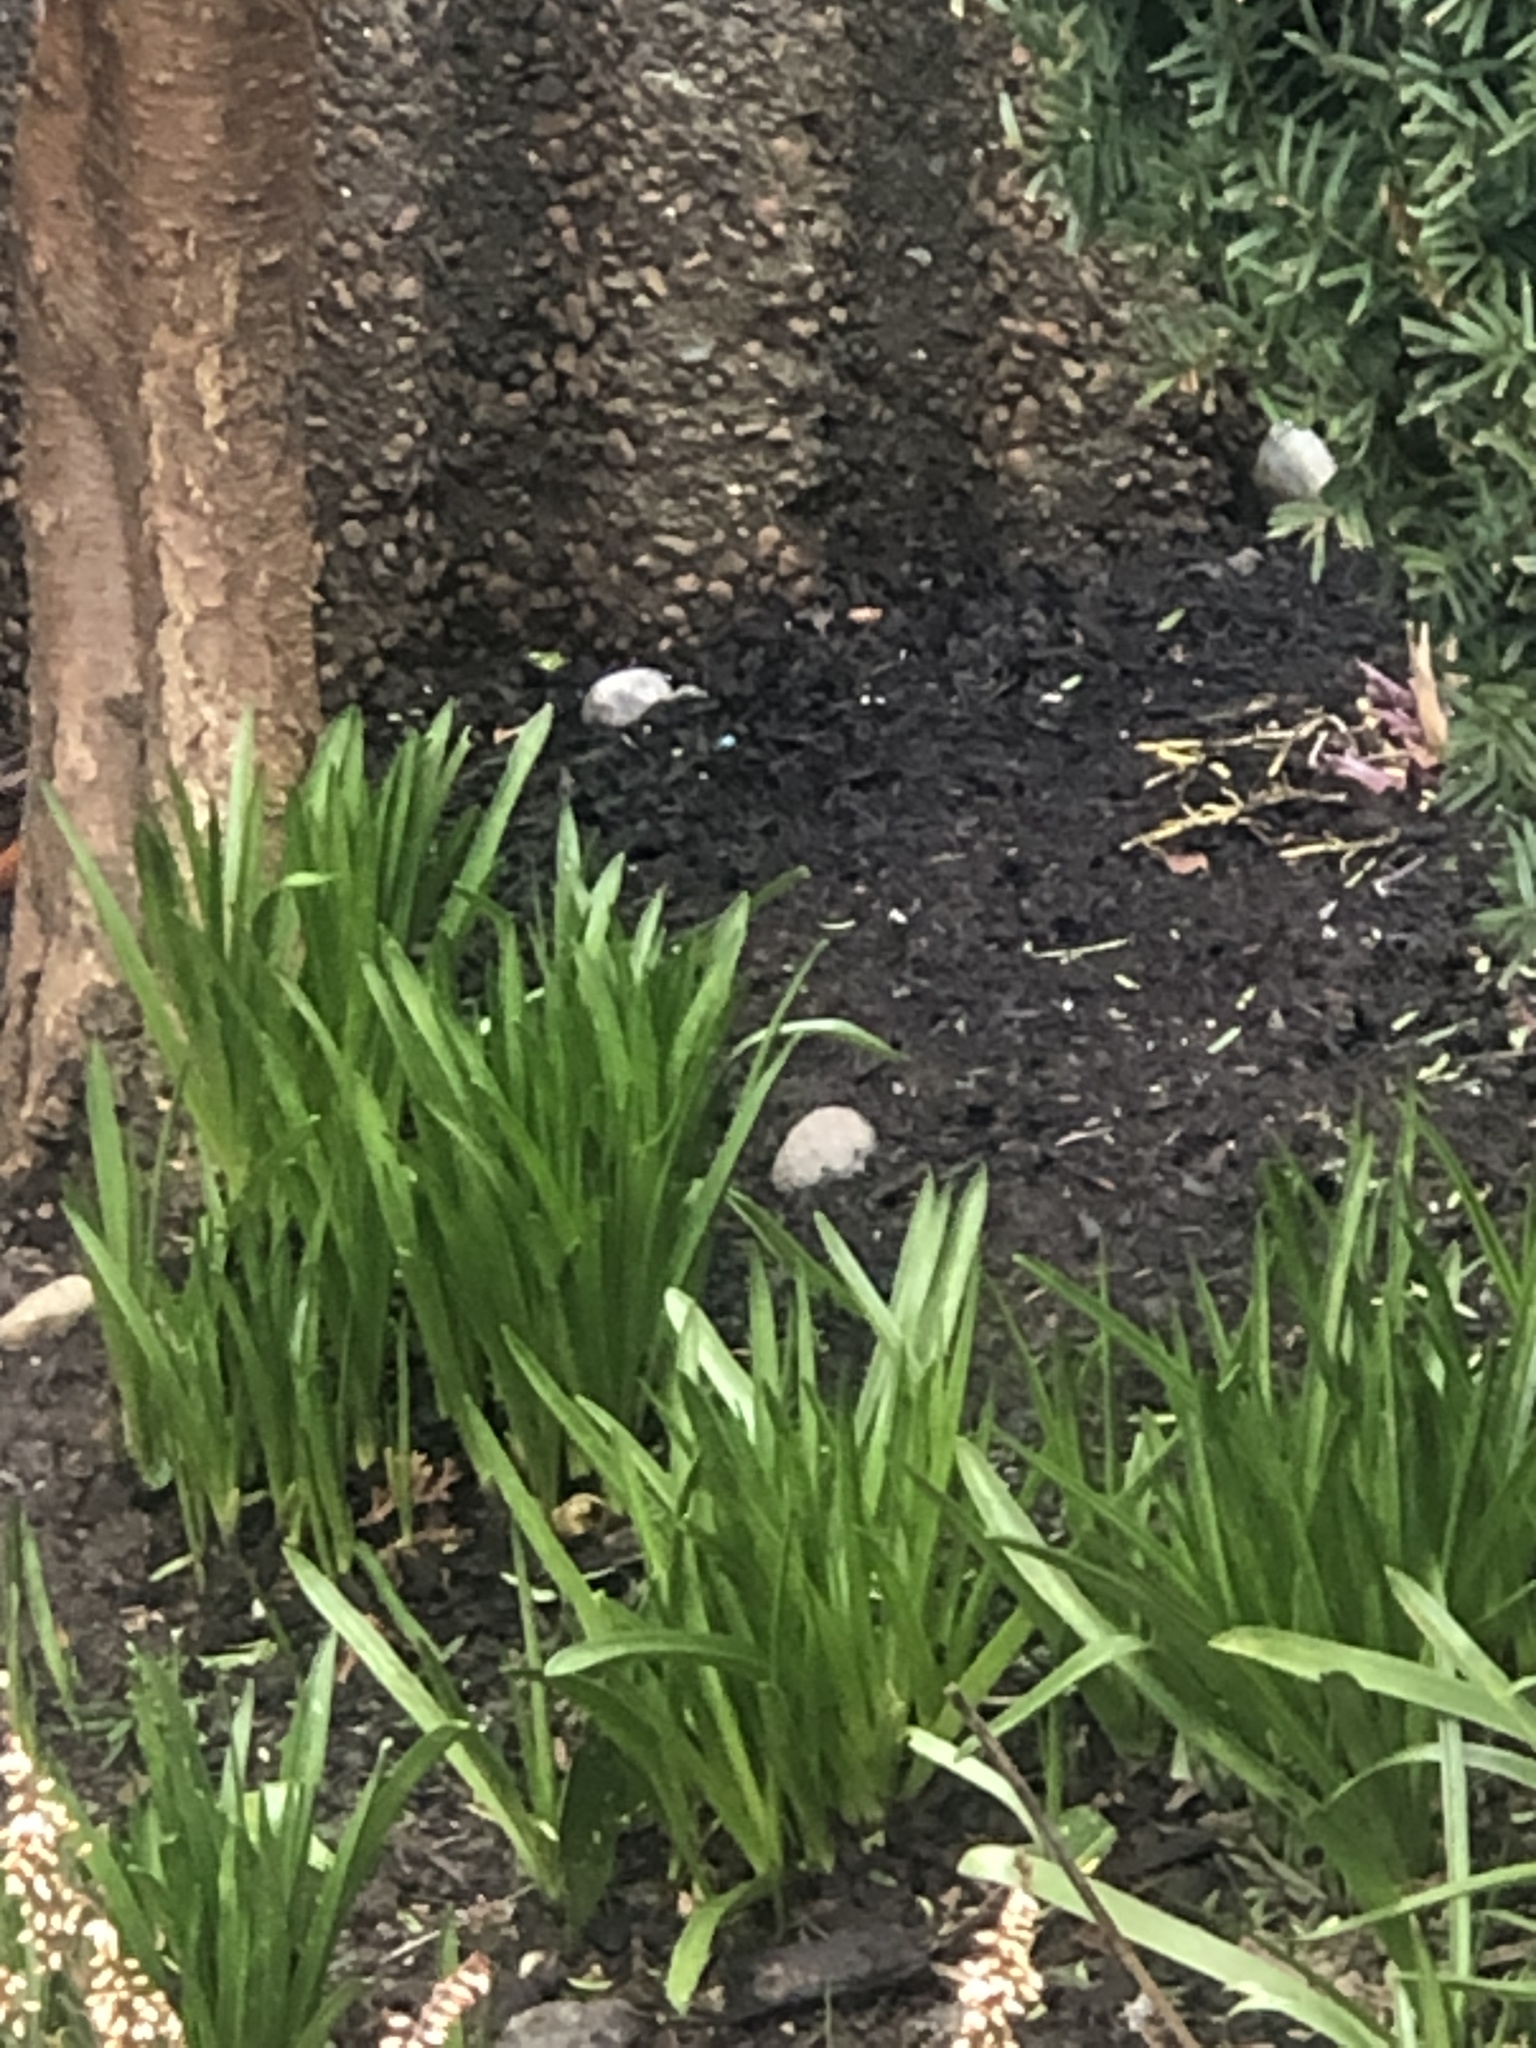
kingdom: Animalia
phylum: Chordata
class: Aves
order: Passeriformes
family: Turdidae
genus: Turdus
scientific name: Turdus migratorius
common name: American robin
